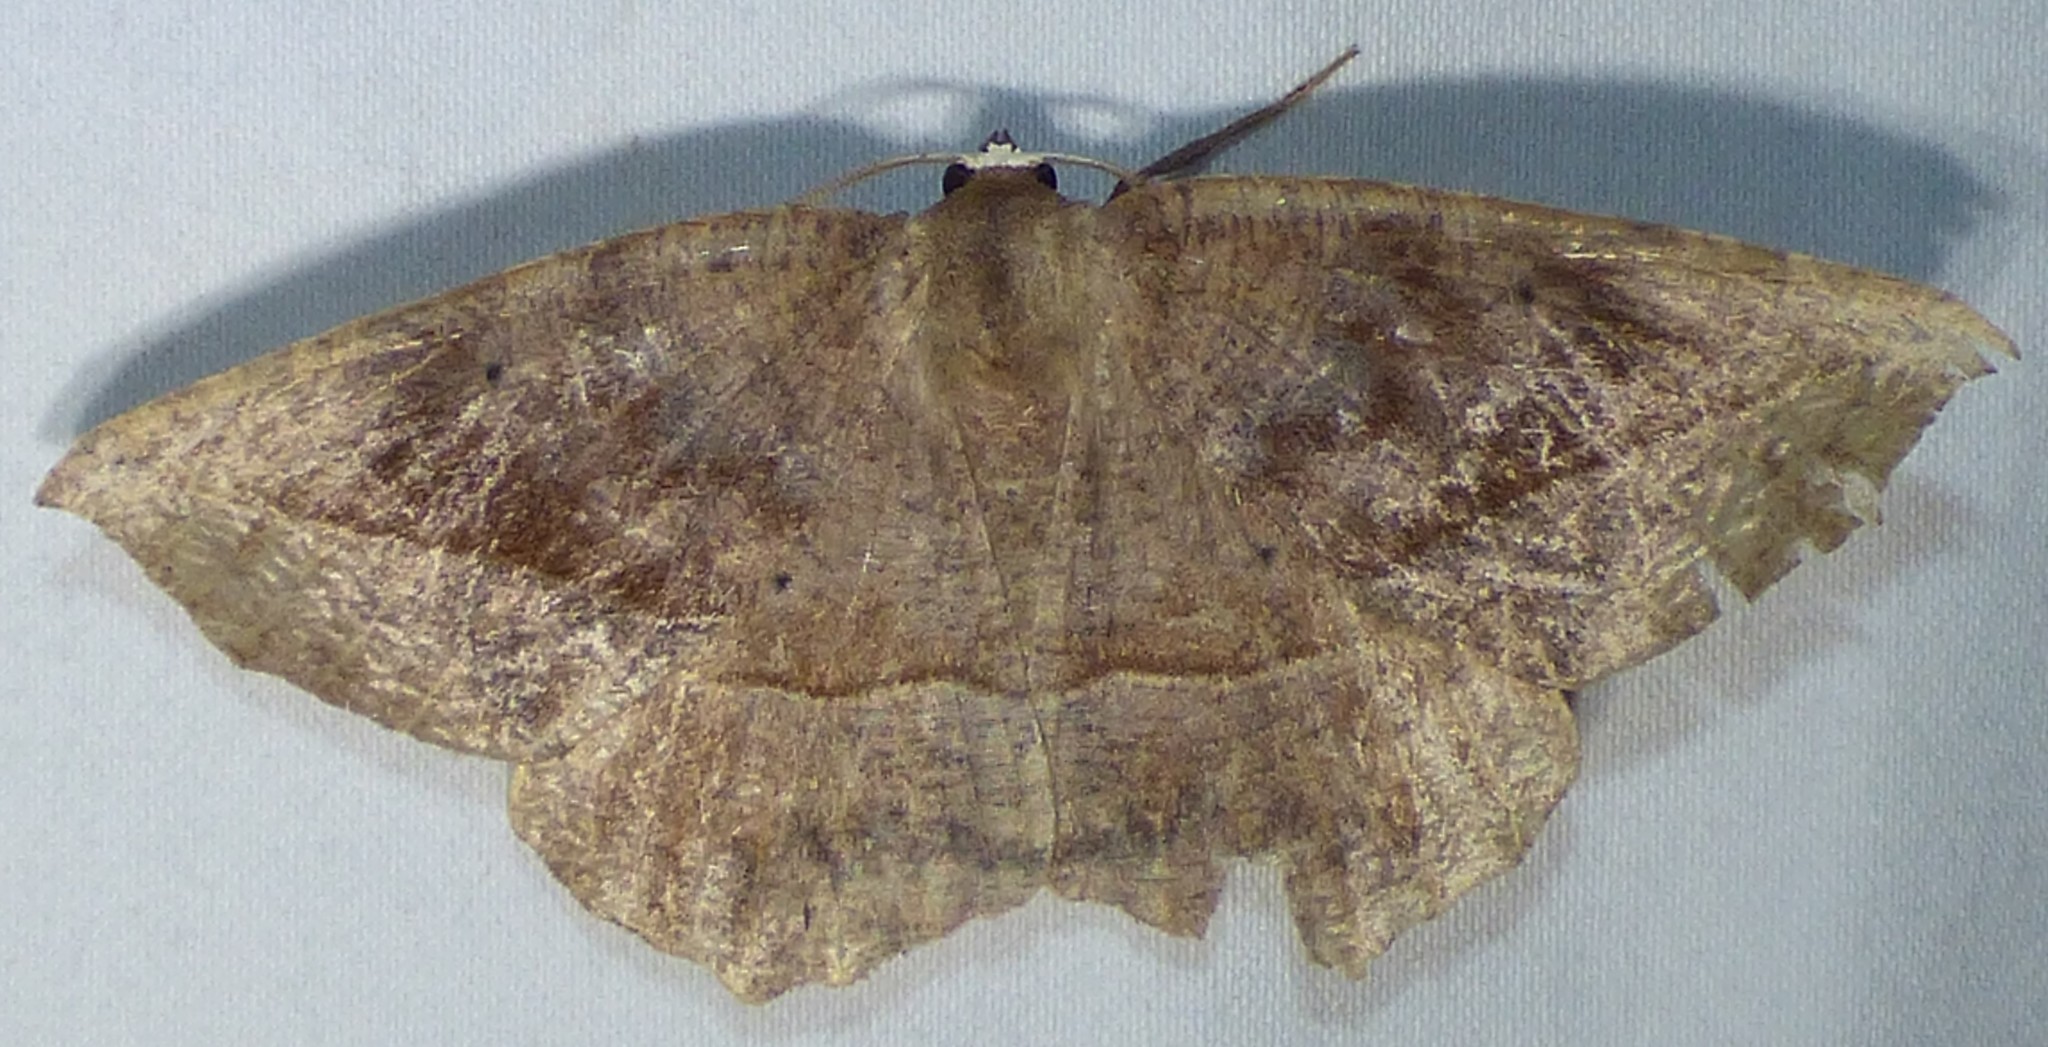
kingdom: Animalia
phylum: Arthropoda
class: Insecta
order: Lepidoptera
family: Geometridae
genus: Eutrapela
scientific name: Eutrapela clemataria
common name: Curved-toothed geometer
